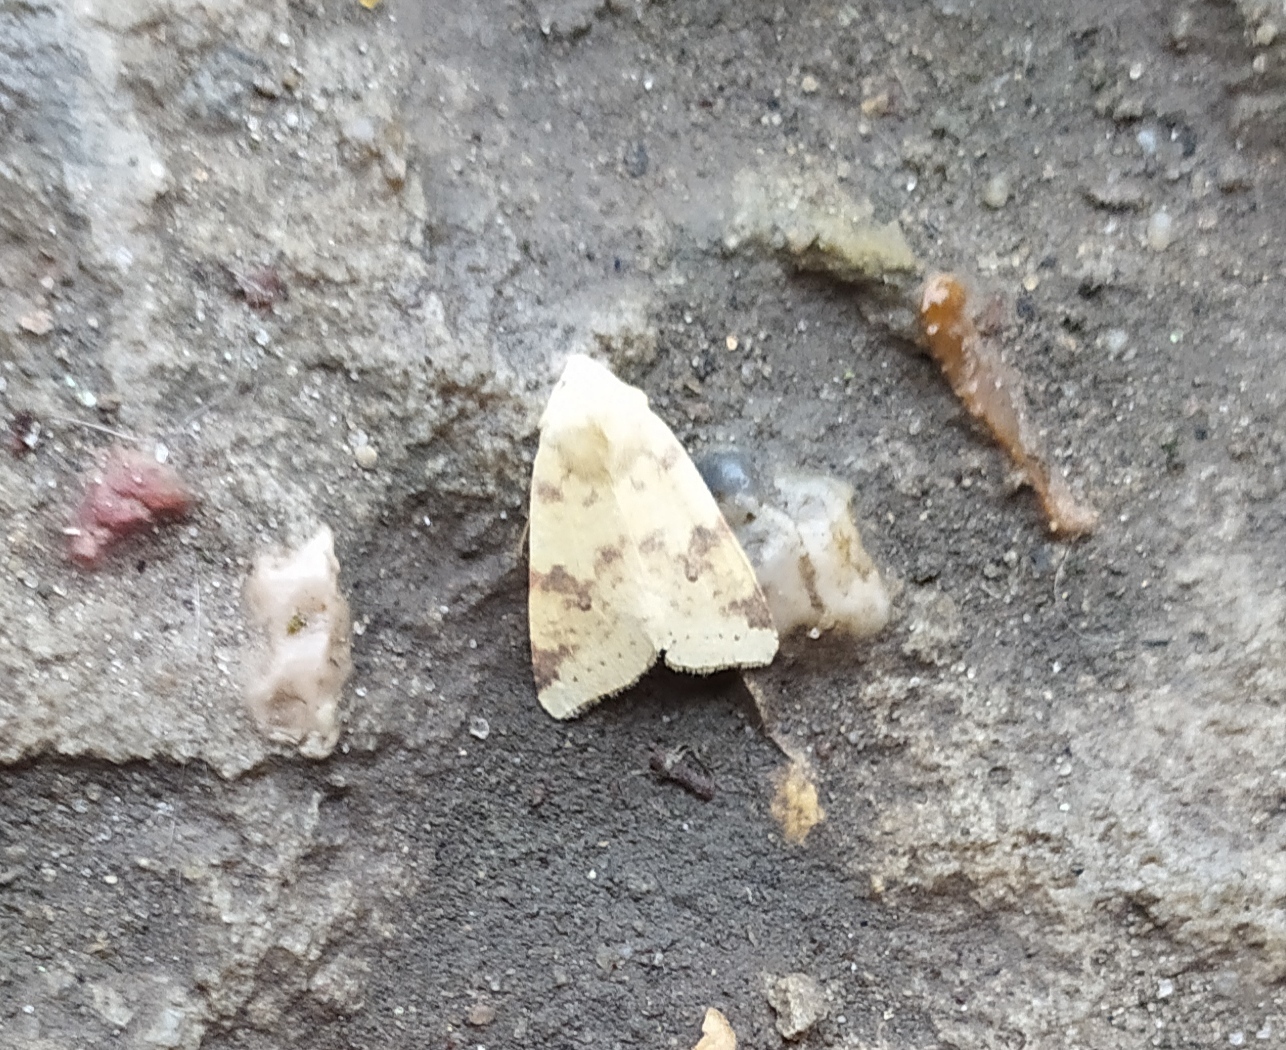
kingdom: Animalia
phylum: Arthropoda
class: Insecta
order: Lepidoptera
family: Noctuidae
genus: Xanthia
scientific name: Xanthia icteritia
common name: The sallow
